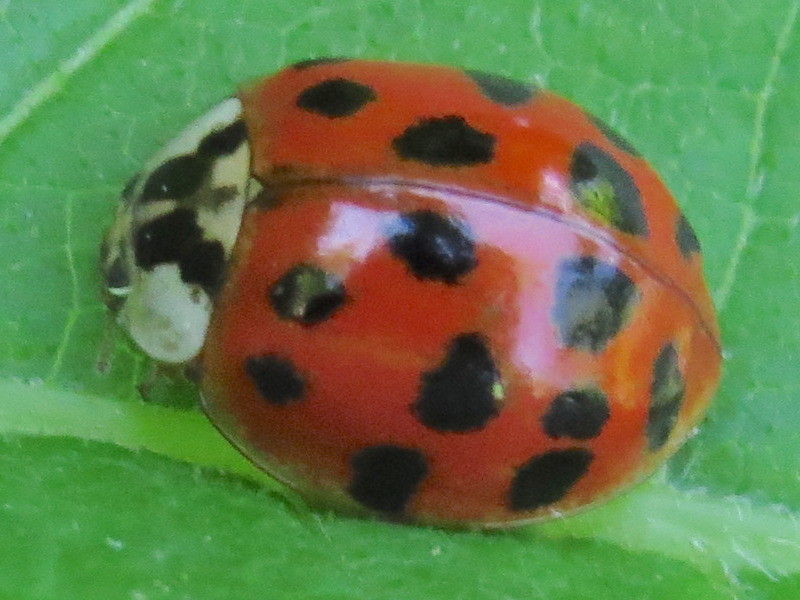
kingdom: Animalia
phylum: Arthropoda
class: Insecta
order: Coleoptera
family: Coccinellidae
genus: Harmonia
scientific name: Harmonia axyridis
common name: Harlequin ladybird
